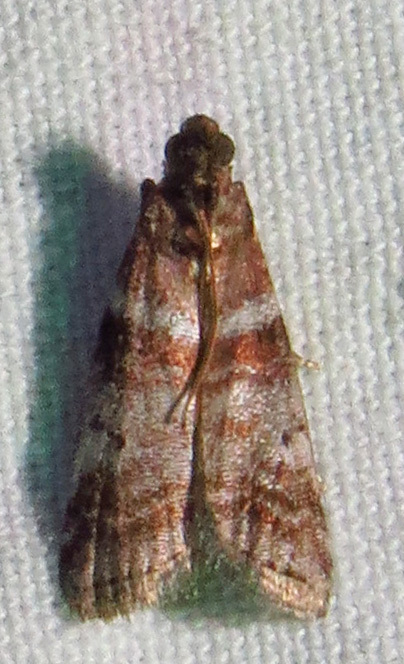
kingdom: Animalia
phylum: Arthropoda
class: Insecta
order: Lepidoptera
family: Pyralidae
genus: Sciota
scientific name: Sciota uvinella
